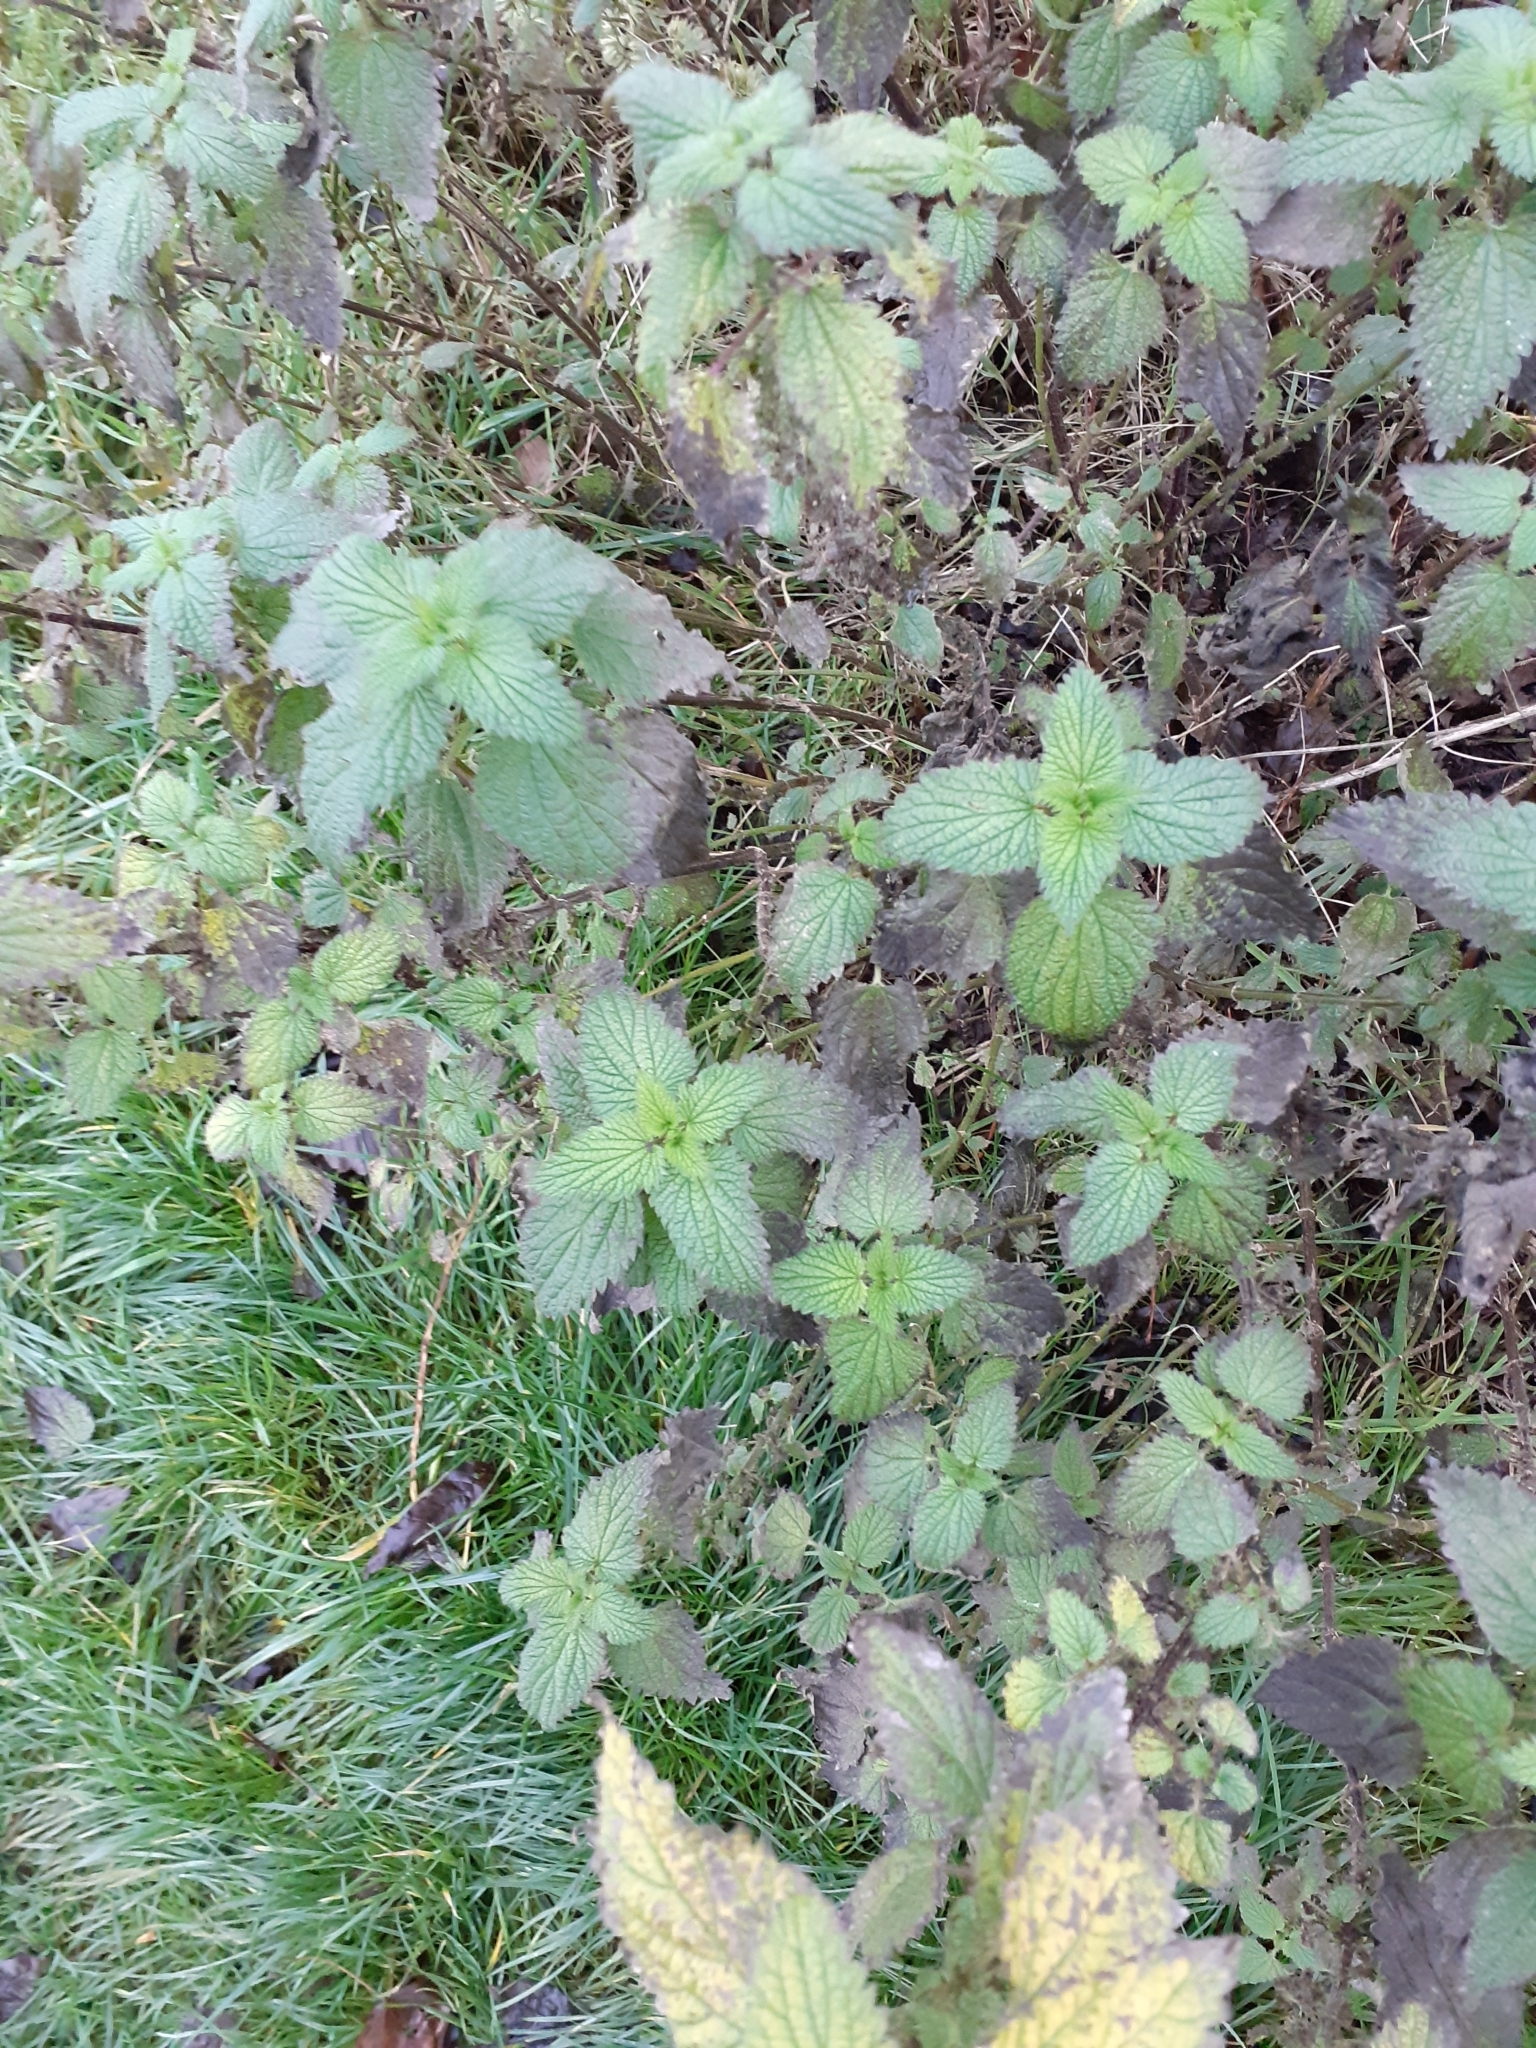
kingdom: Plantae
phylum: Tracheophyta
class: Magnoliopsida
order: Rosales
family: Urticaceae
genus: Urtica
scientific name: Urtica dioica
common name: Common nettle
